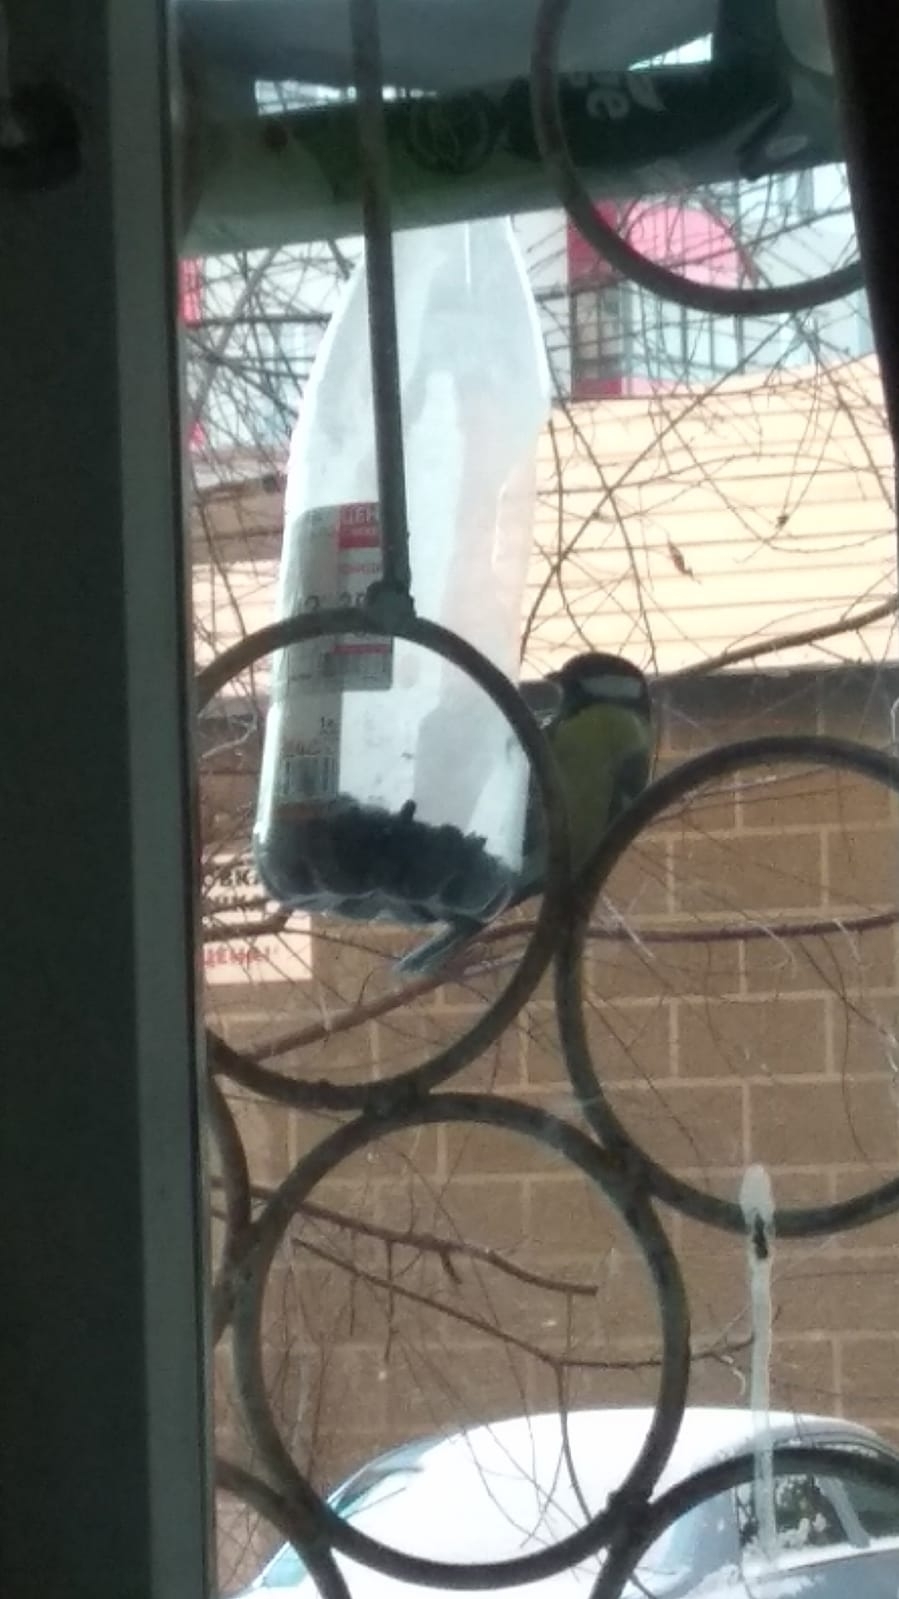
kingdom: Animalia
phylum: Chordata
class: Aves
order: Passeriformes
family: Paridae
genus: Parus
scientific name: Parus major
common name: Great tit
